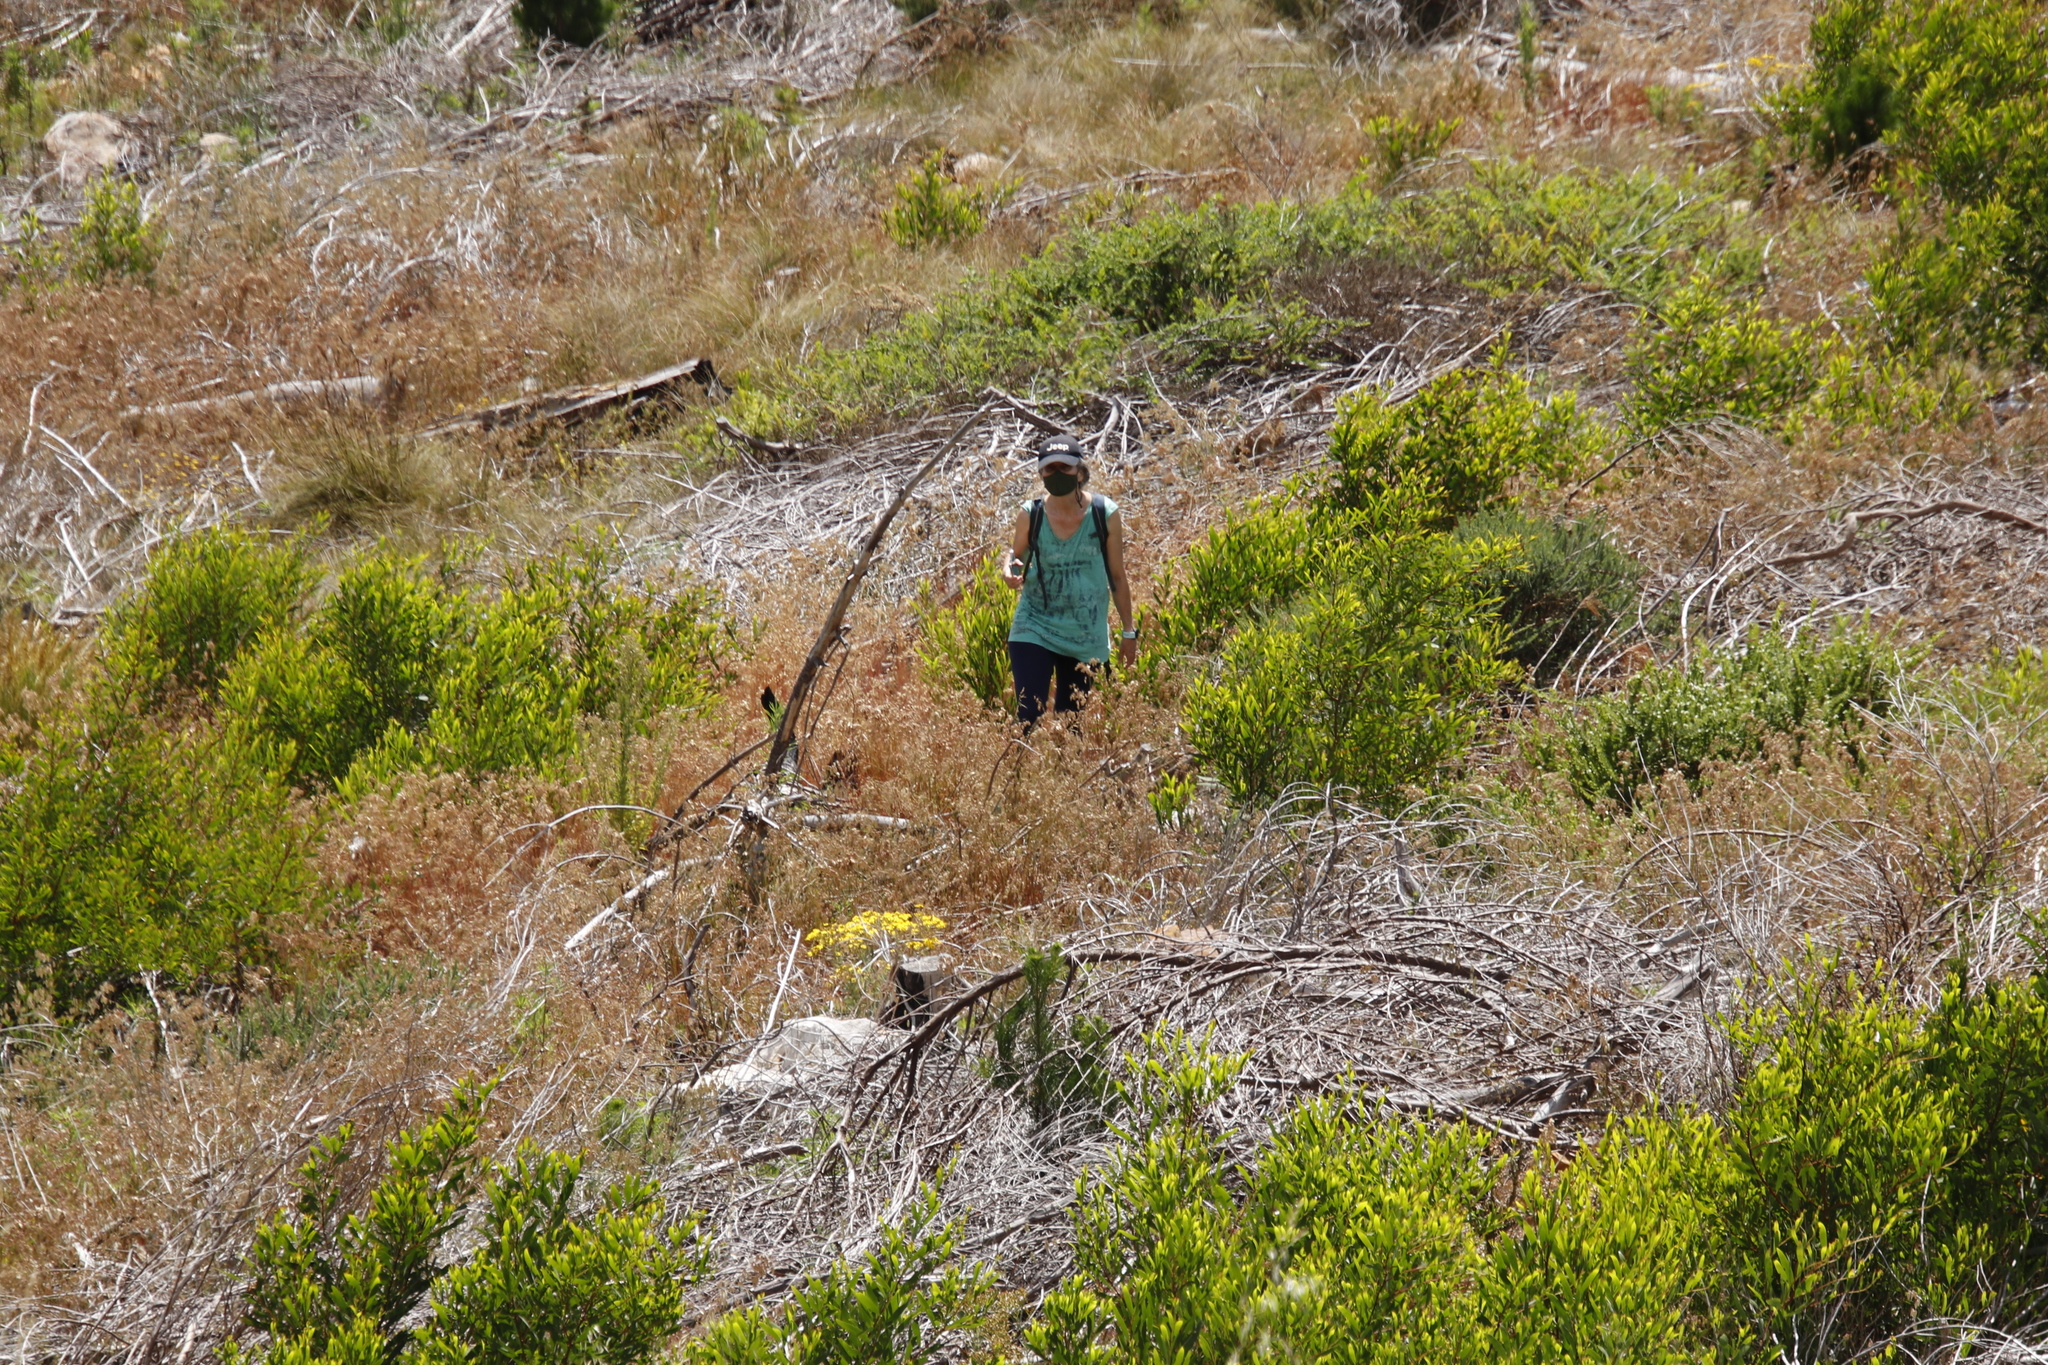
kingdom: Plantae
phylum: Tracheophyta
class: Magnoliopsida
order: Fabales
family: Fabaceae
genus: Acacia
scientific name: Acacia longifolia
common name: Sydney golden wattle
